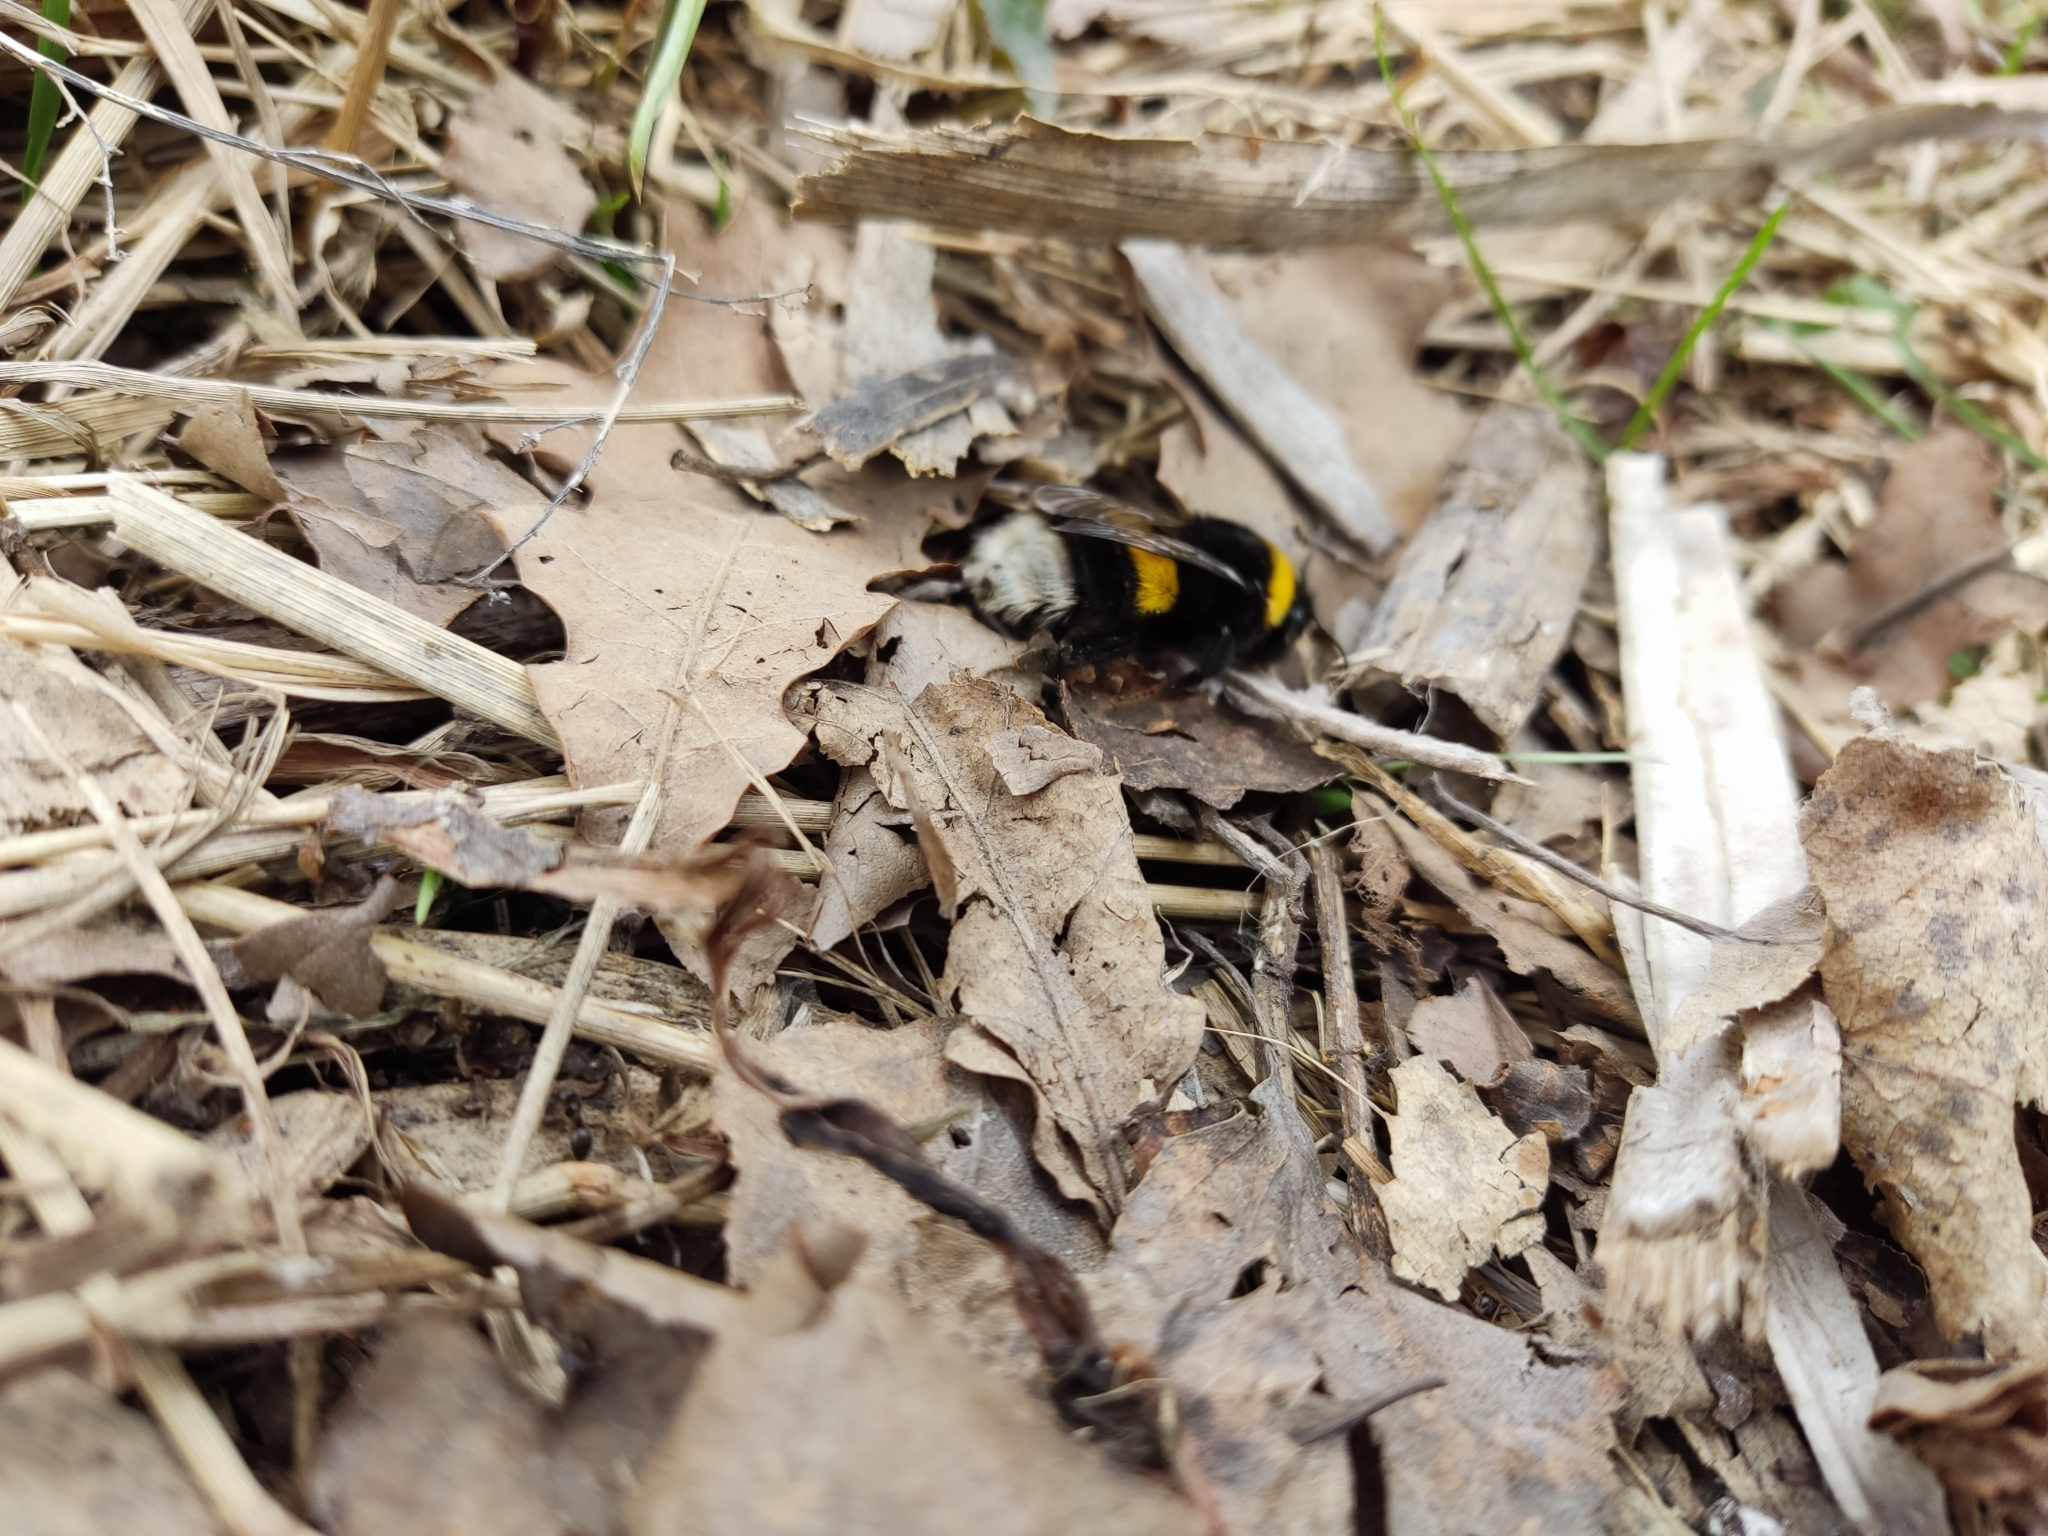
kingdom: Animalia
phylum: Arthropoda
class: Insecta
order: Hymenoptera
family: Apidae
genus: Bombus
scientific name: Bombus
